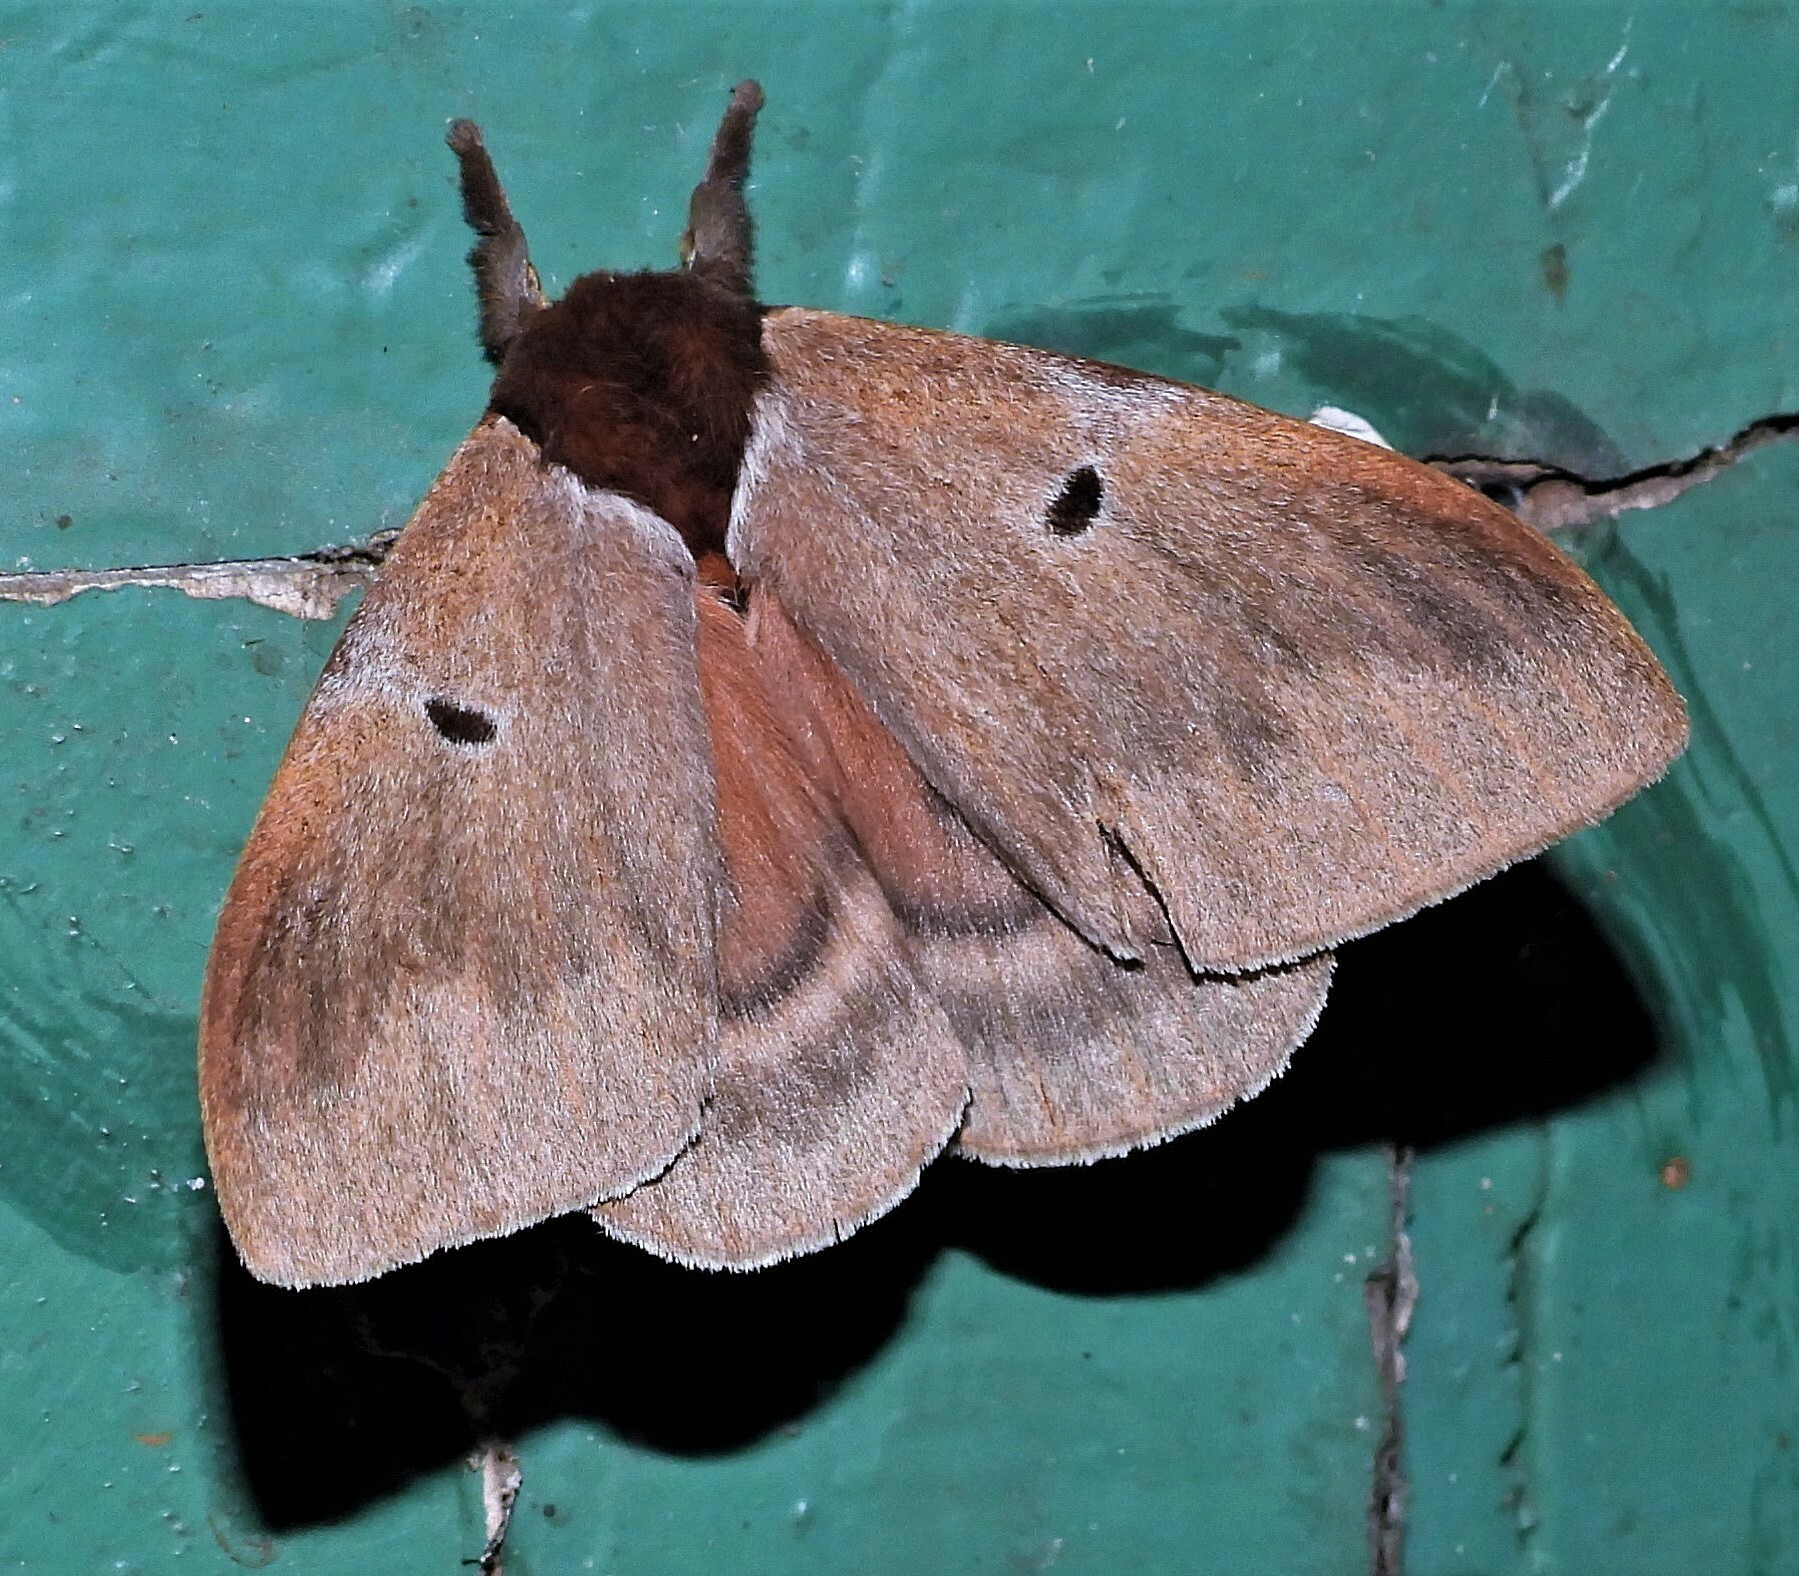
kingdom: Animalia
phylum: Arthropoda
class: Insecta
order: Lepidoptera
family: Saturniidae
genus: Dirphia
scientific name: Dirphia baroma
